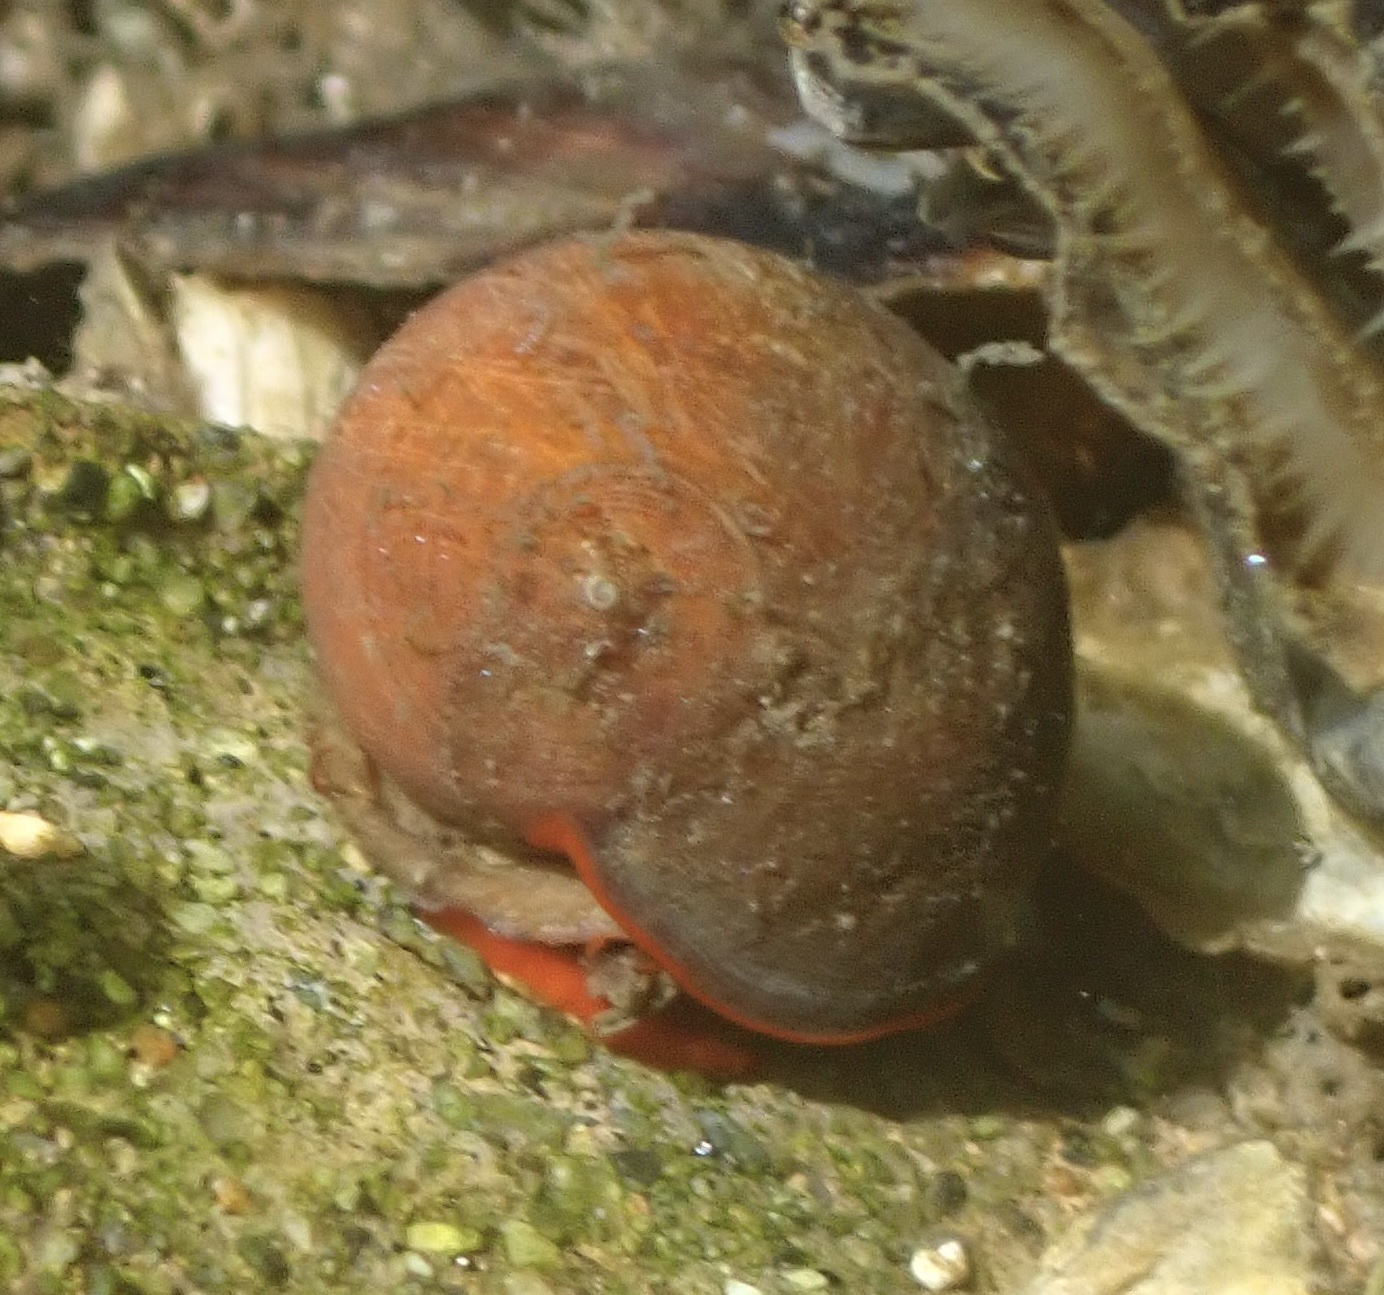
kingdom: Animalia
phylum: Mollusca
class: Gastropoda
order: Trochida
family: Tegulidae
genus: Norrisia
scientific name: Norrisia norrisii
